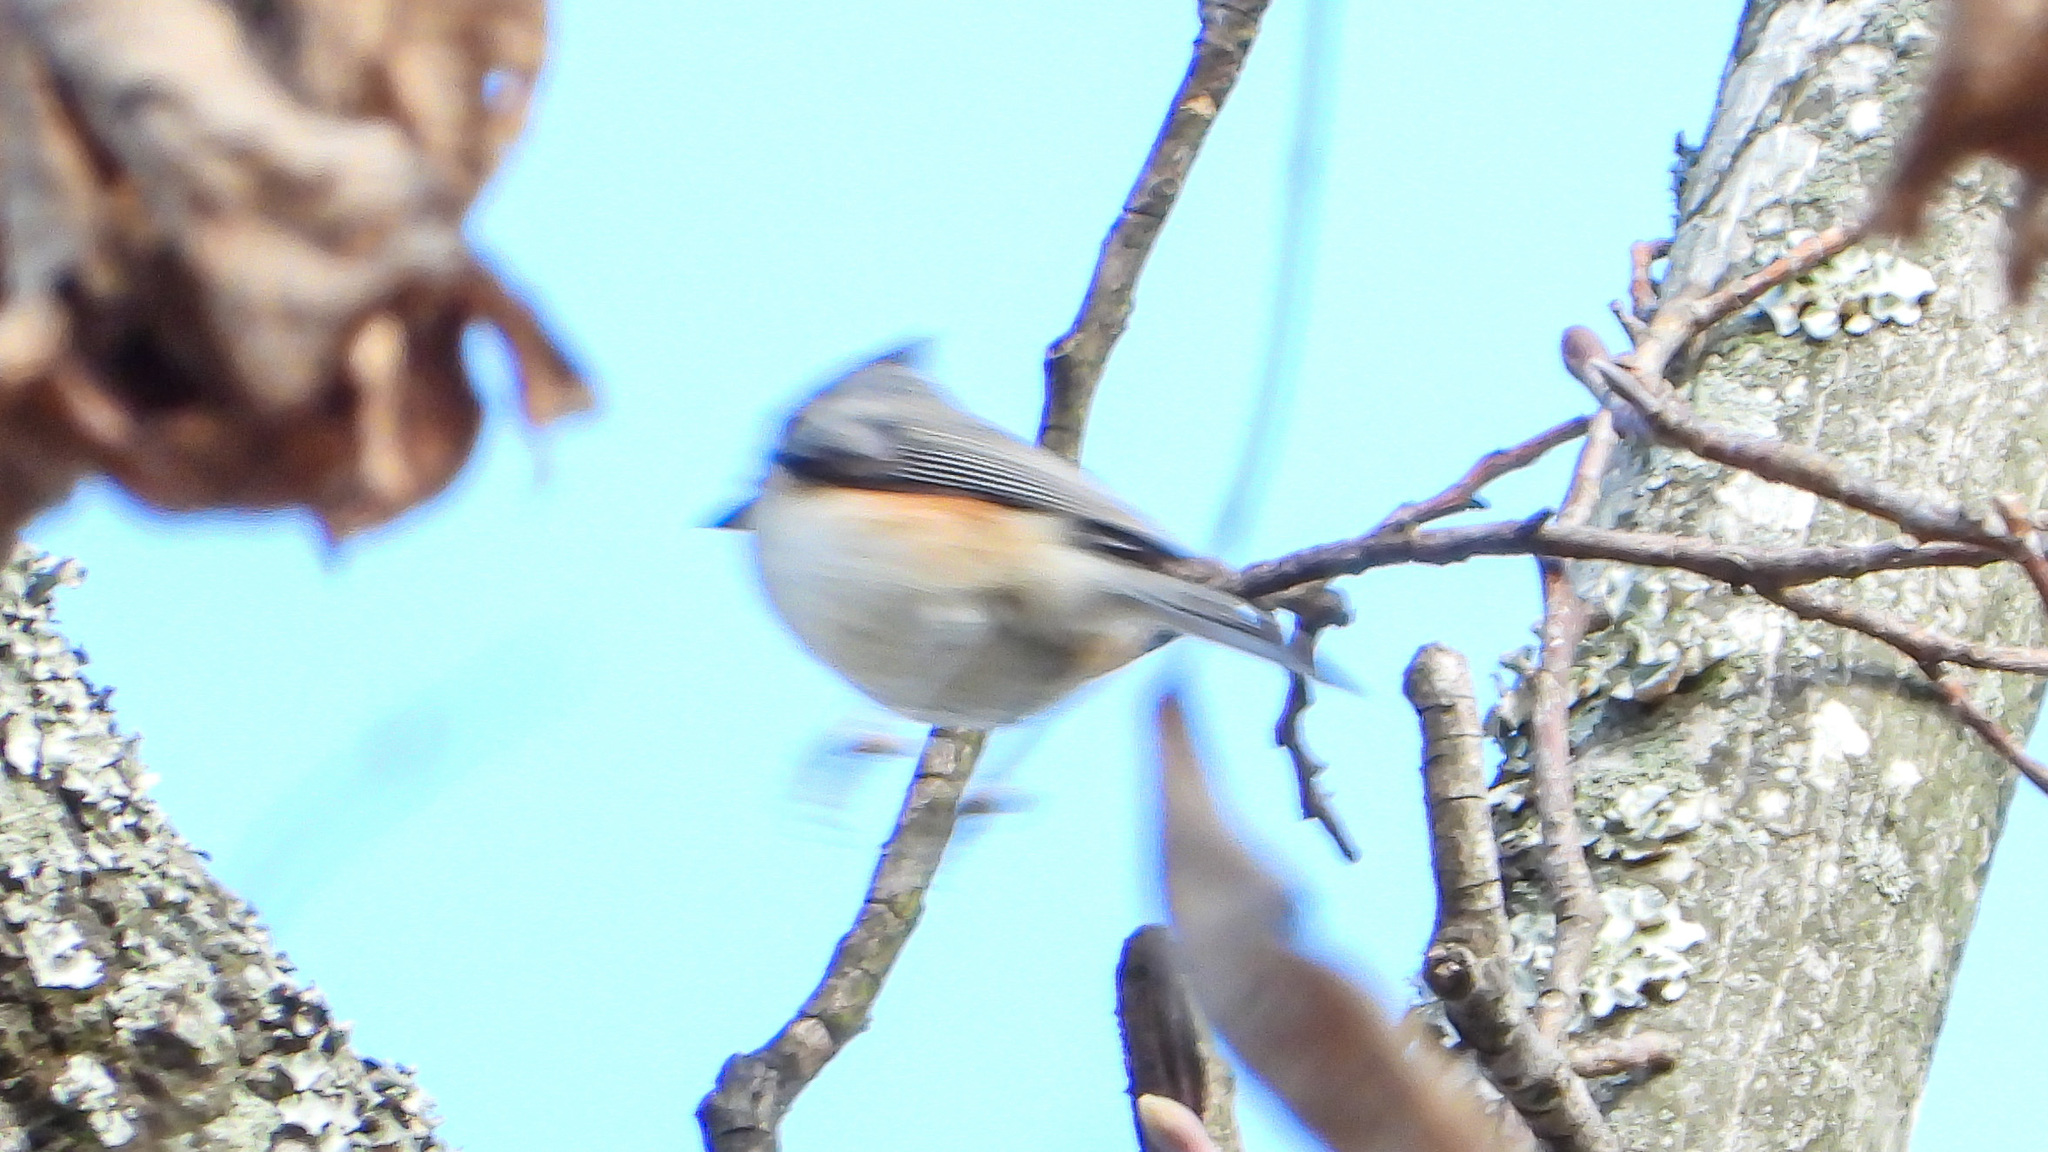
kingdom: Animalia
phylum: Chordata
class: Aves
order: Passeriformes
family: Paridae
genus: Baeolophus
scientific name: Baeolophus bicolor
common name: Tufted titmouse
